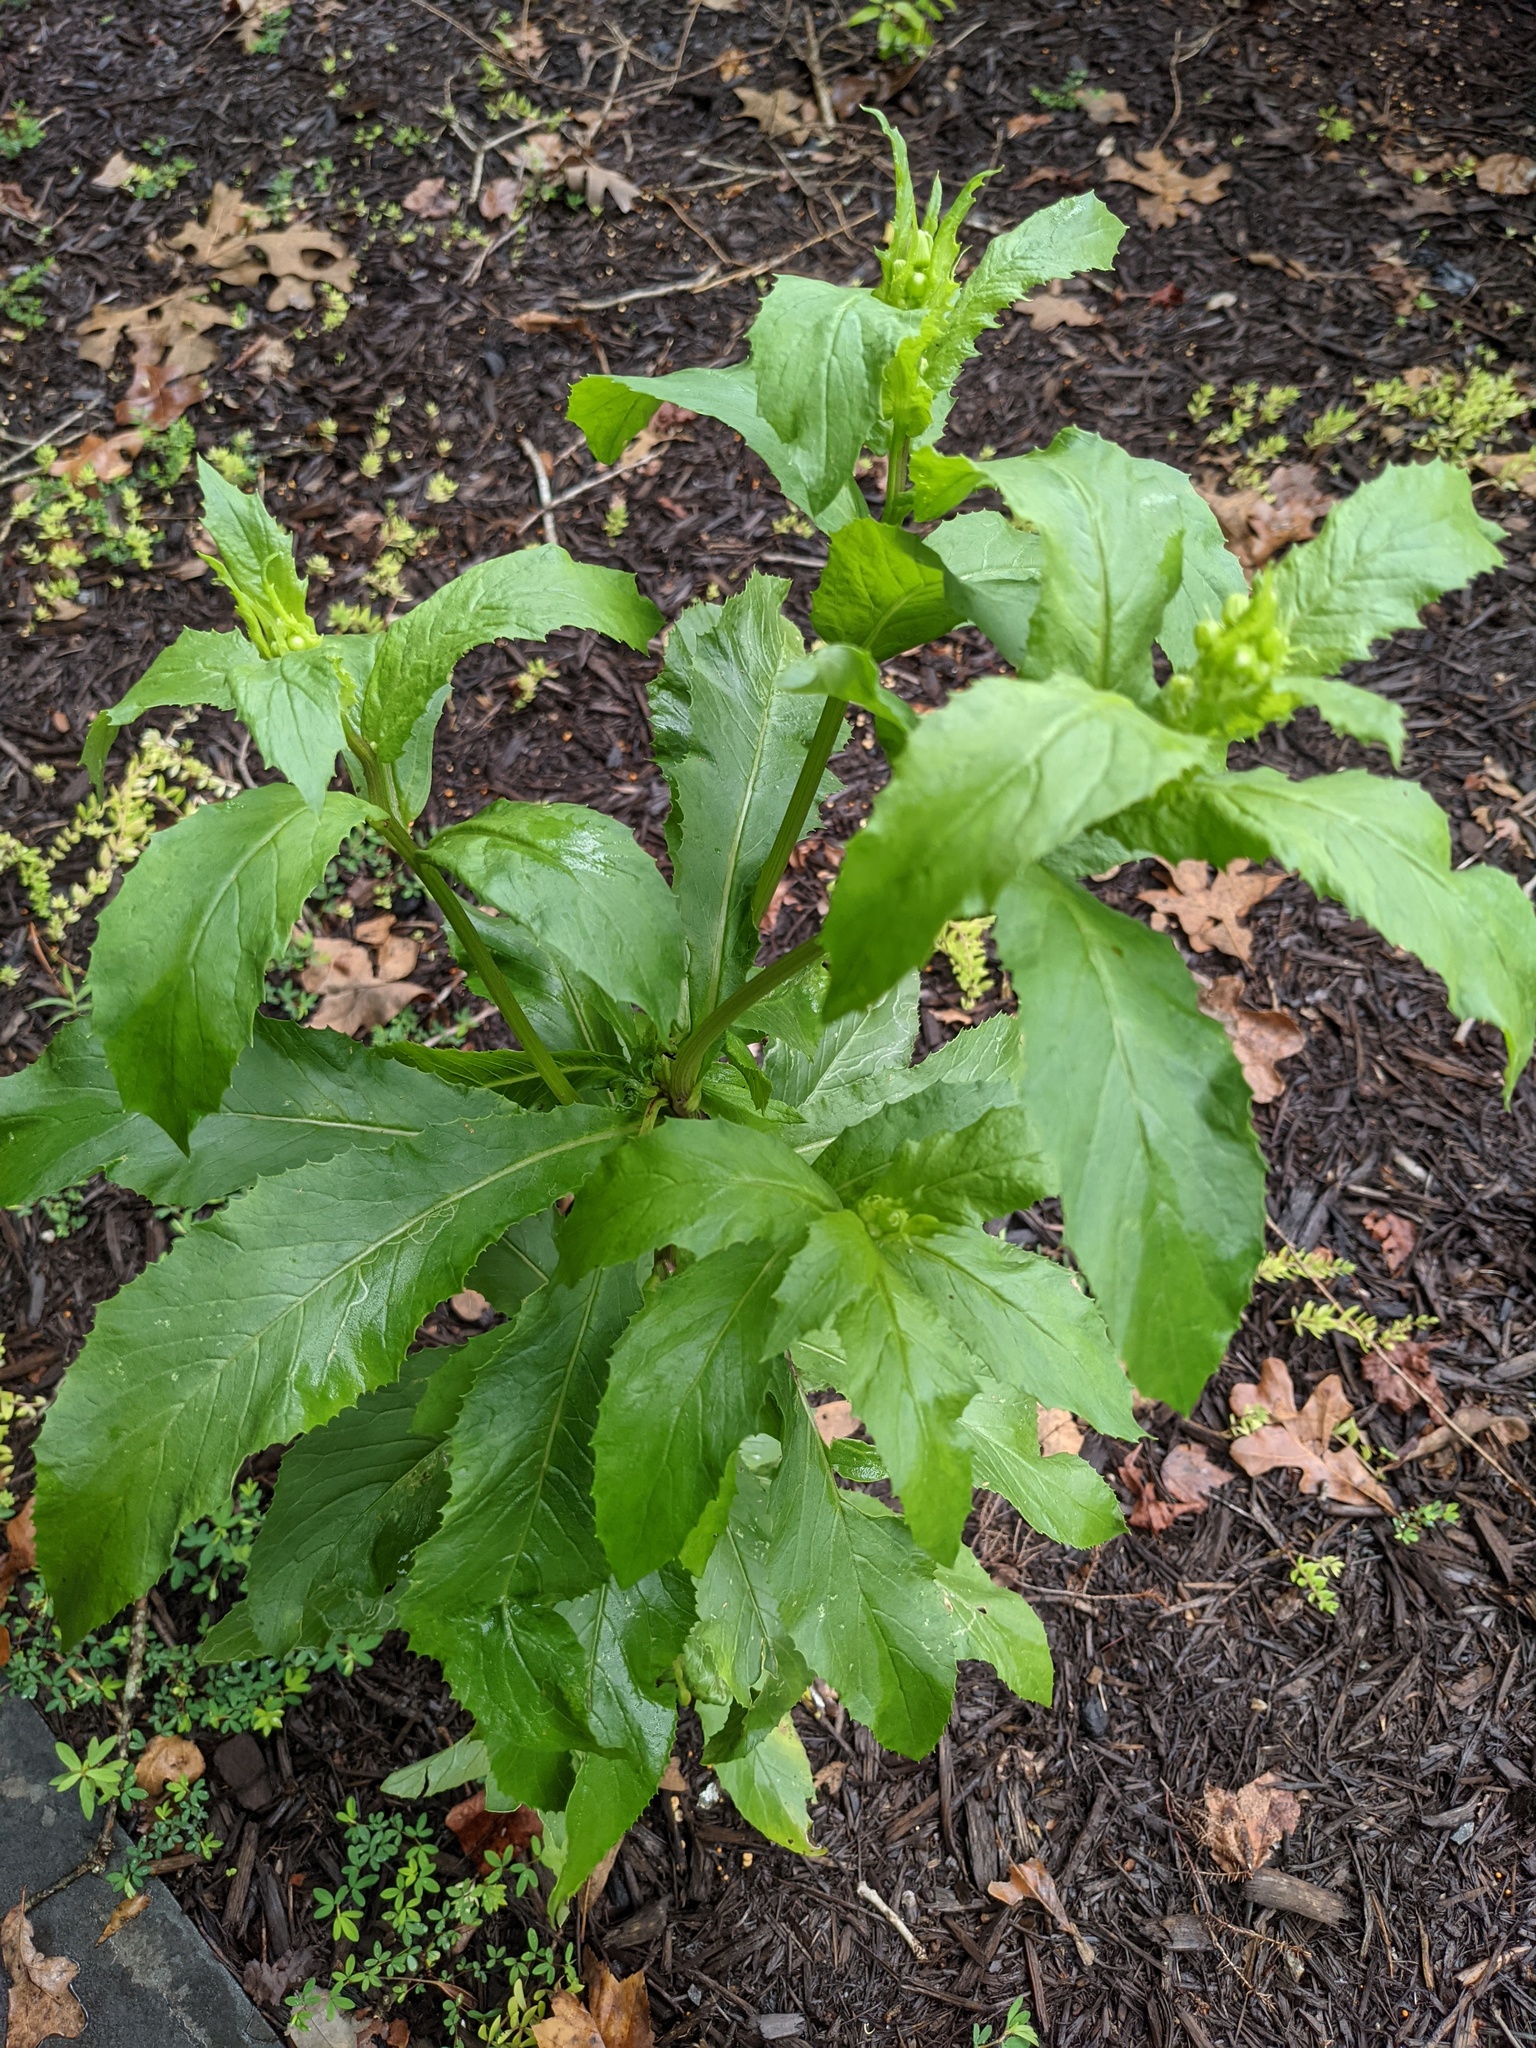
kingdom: Plantae
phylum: Tracheophyta
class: Magnoliopsida
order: Asterales
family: Asteraceae
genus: Erechtites
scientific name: Erechtites hieraciifolius
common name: American burnweed
